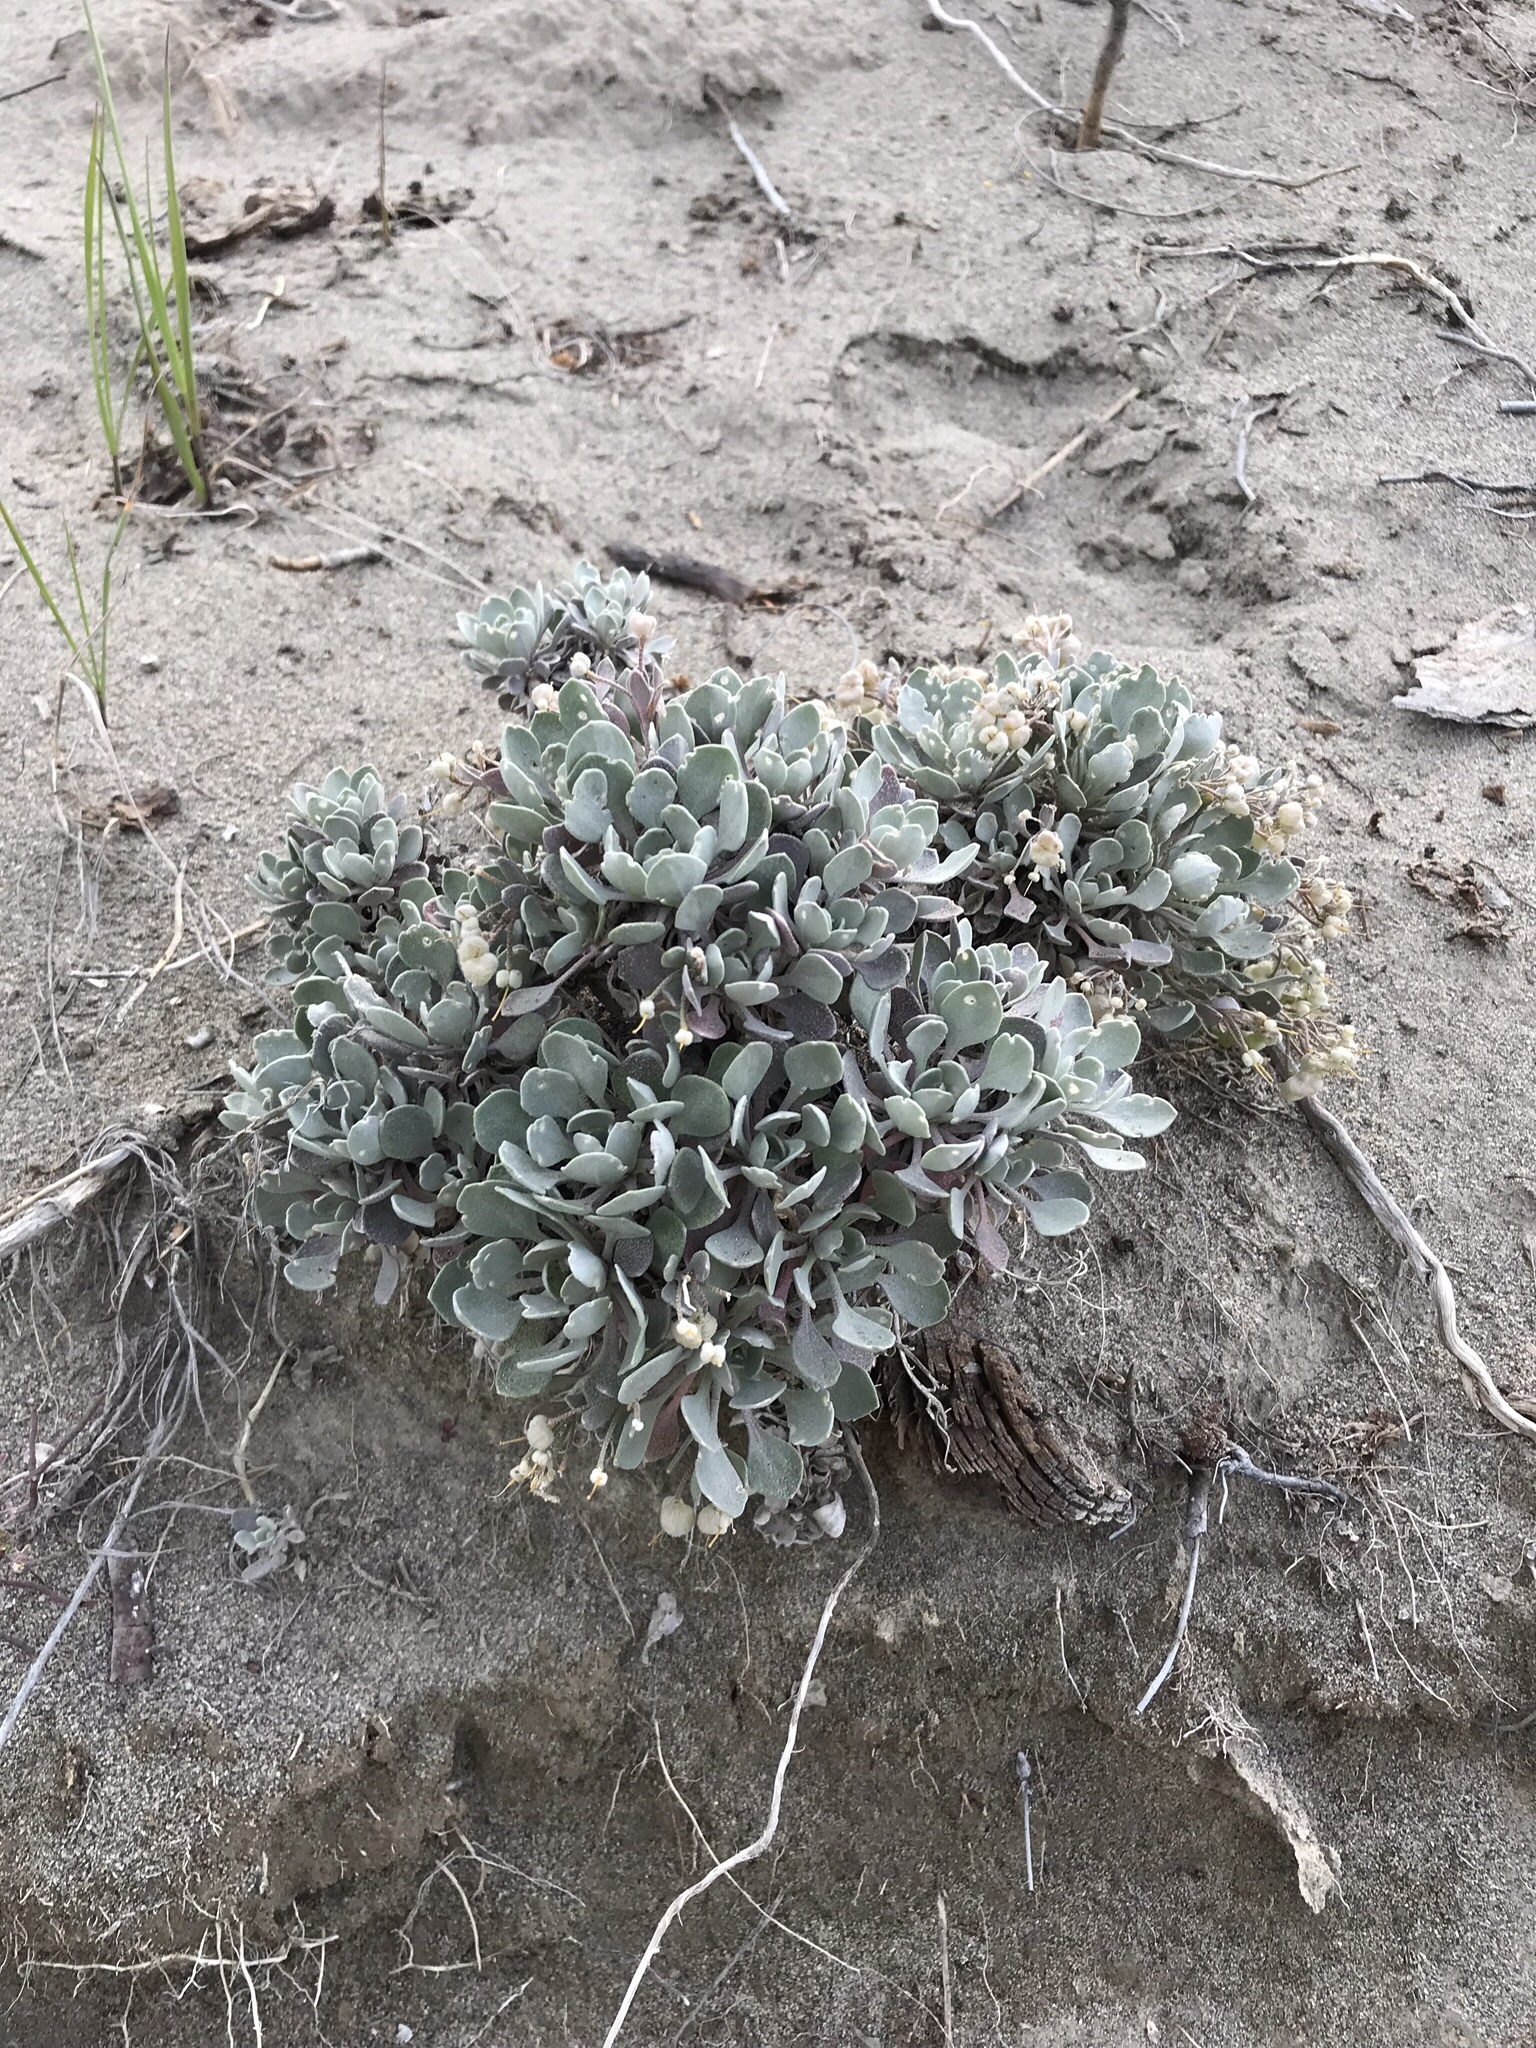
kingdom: Plantae
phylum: Tracheophyta
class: Magnoliopsida
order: Brassicales
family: Brassicaceae
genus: Physaria
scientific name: Physaria didymocarpa
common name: Common twinpod
